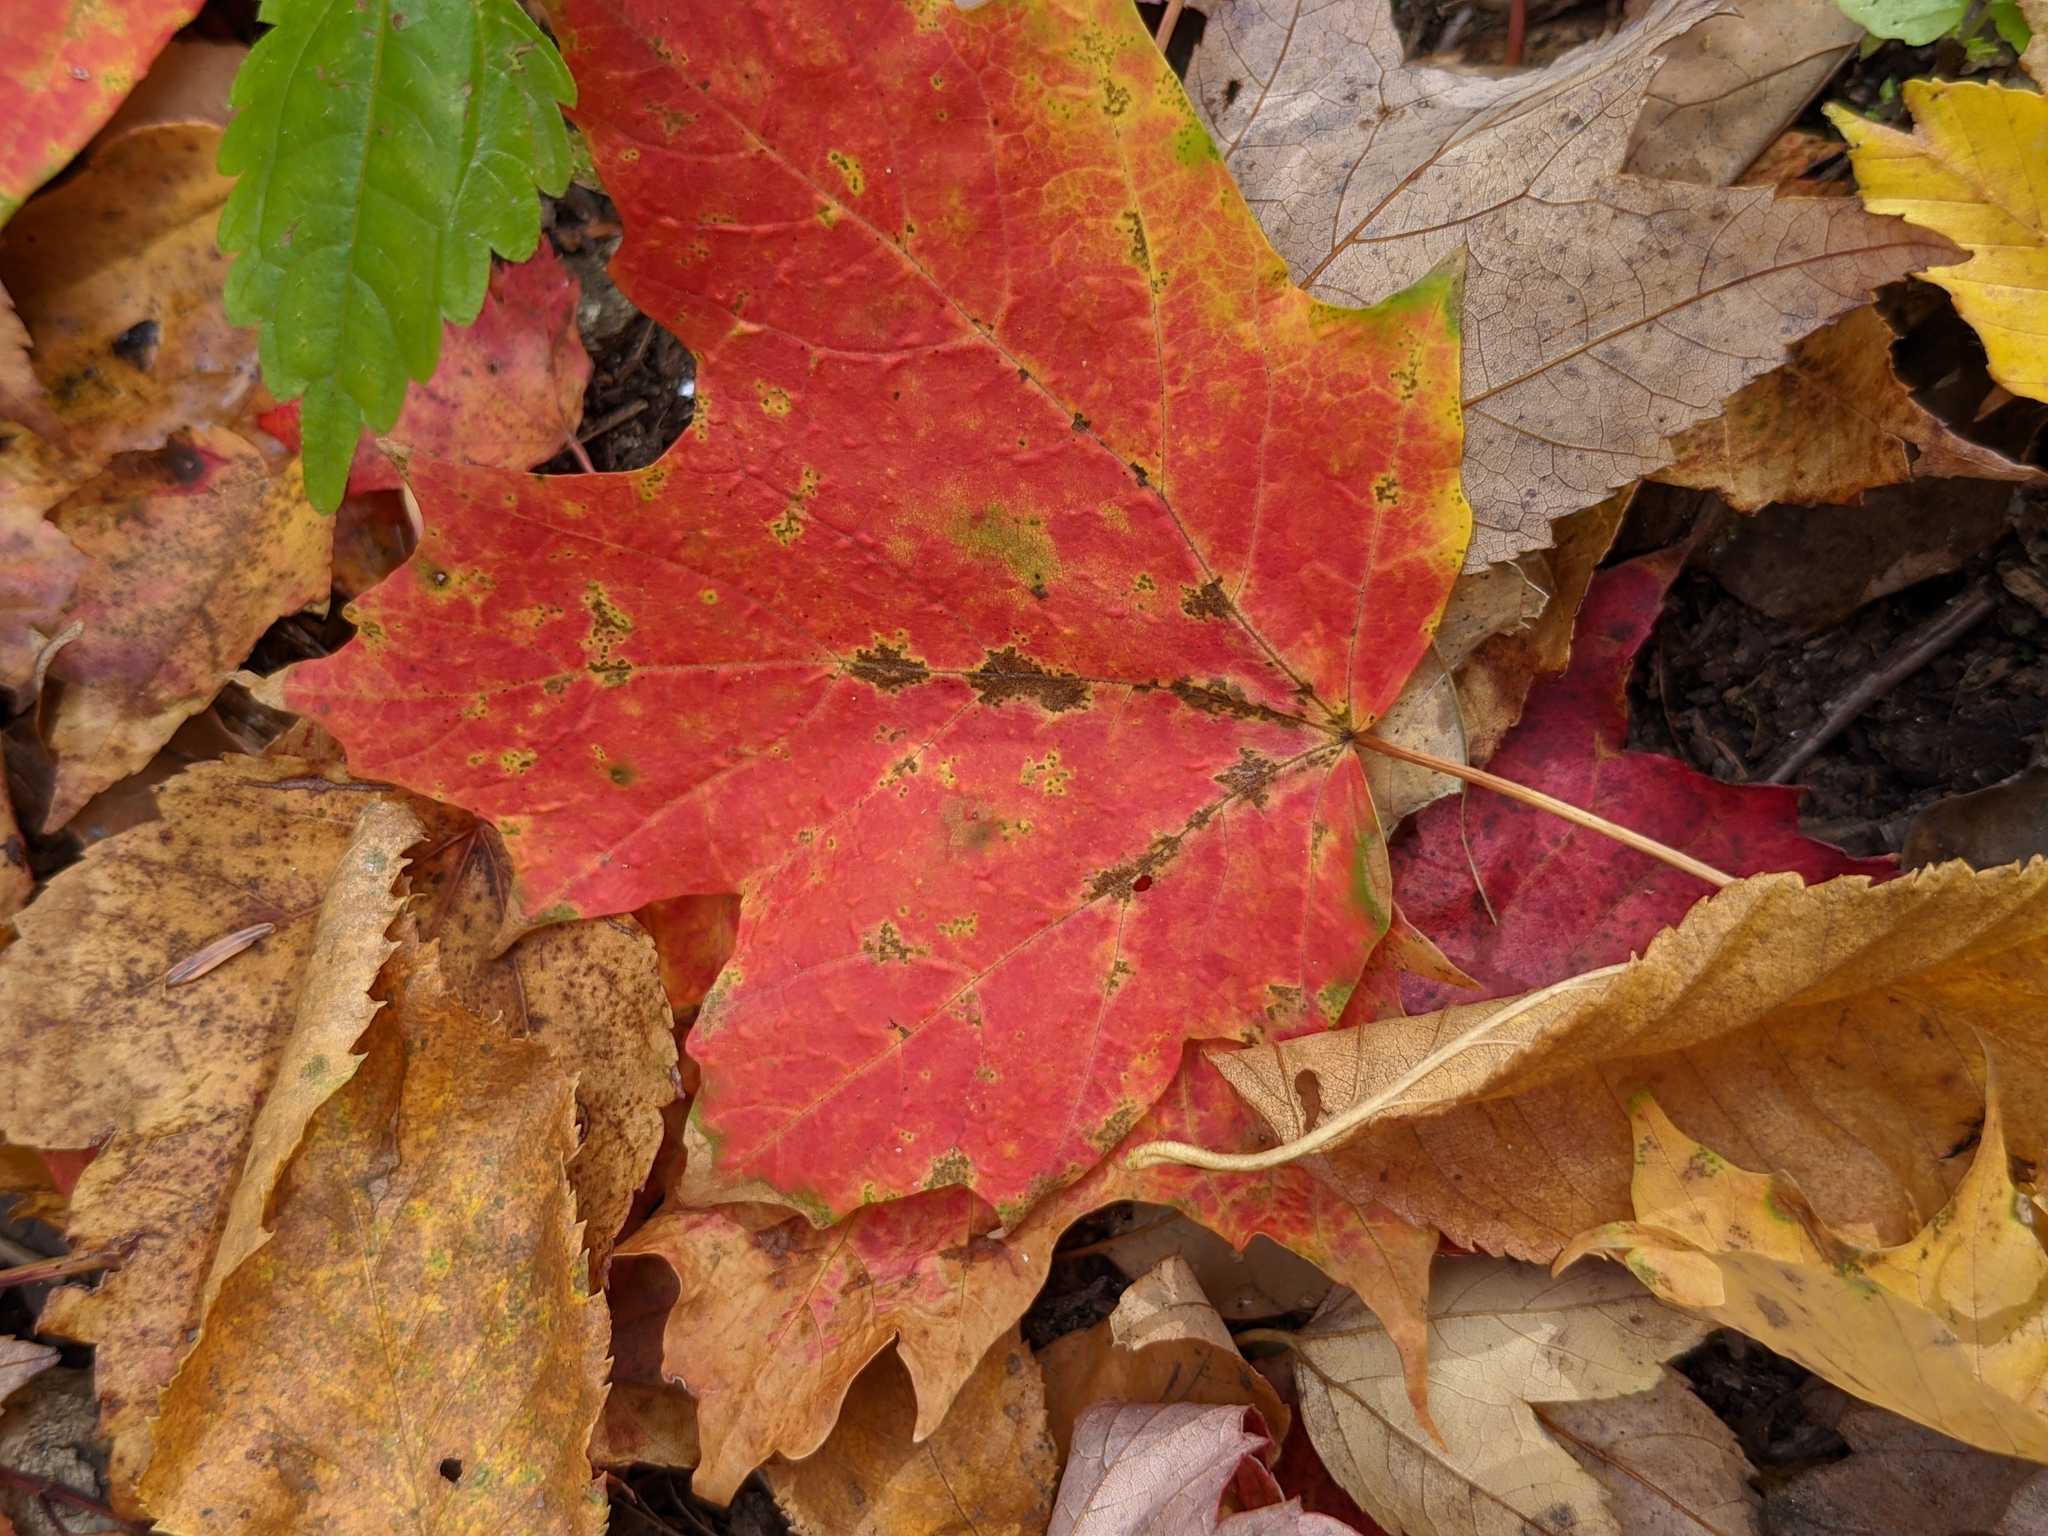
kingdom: Plantae
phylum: Tracheophyta
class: Magnoliopsida
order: Sapindales
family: Sapindaceae
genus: Acer
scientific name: Acer saccharum
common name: Sugar maple
